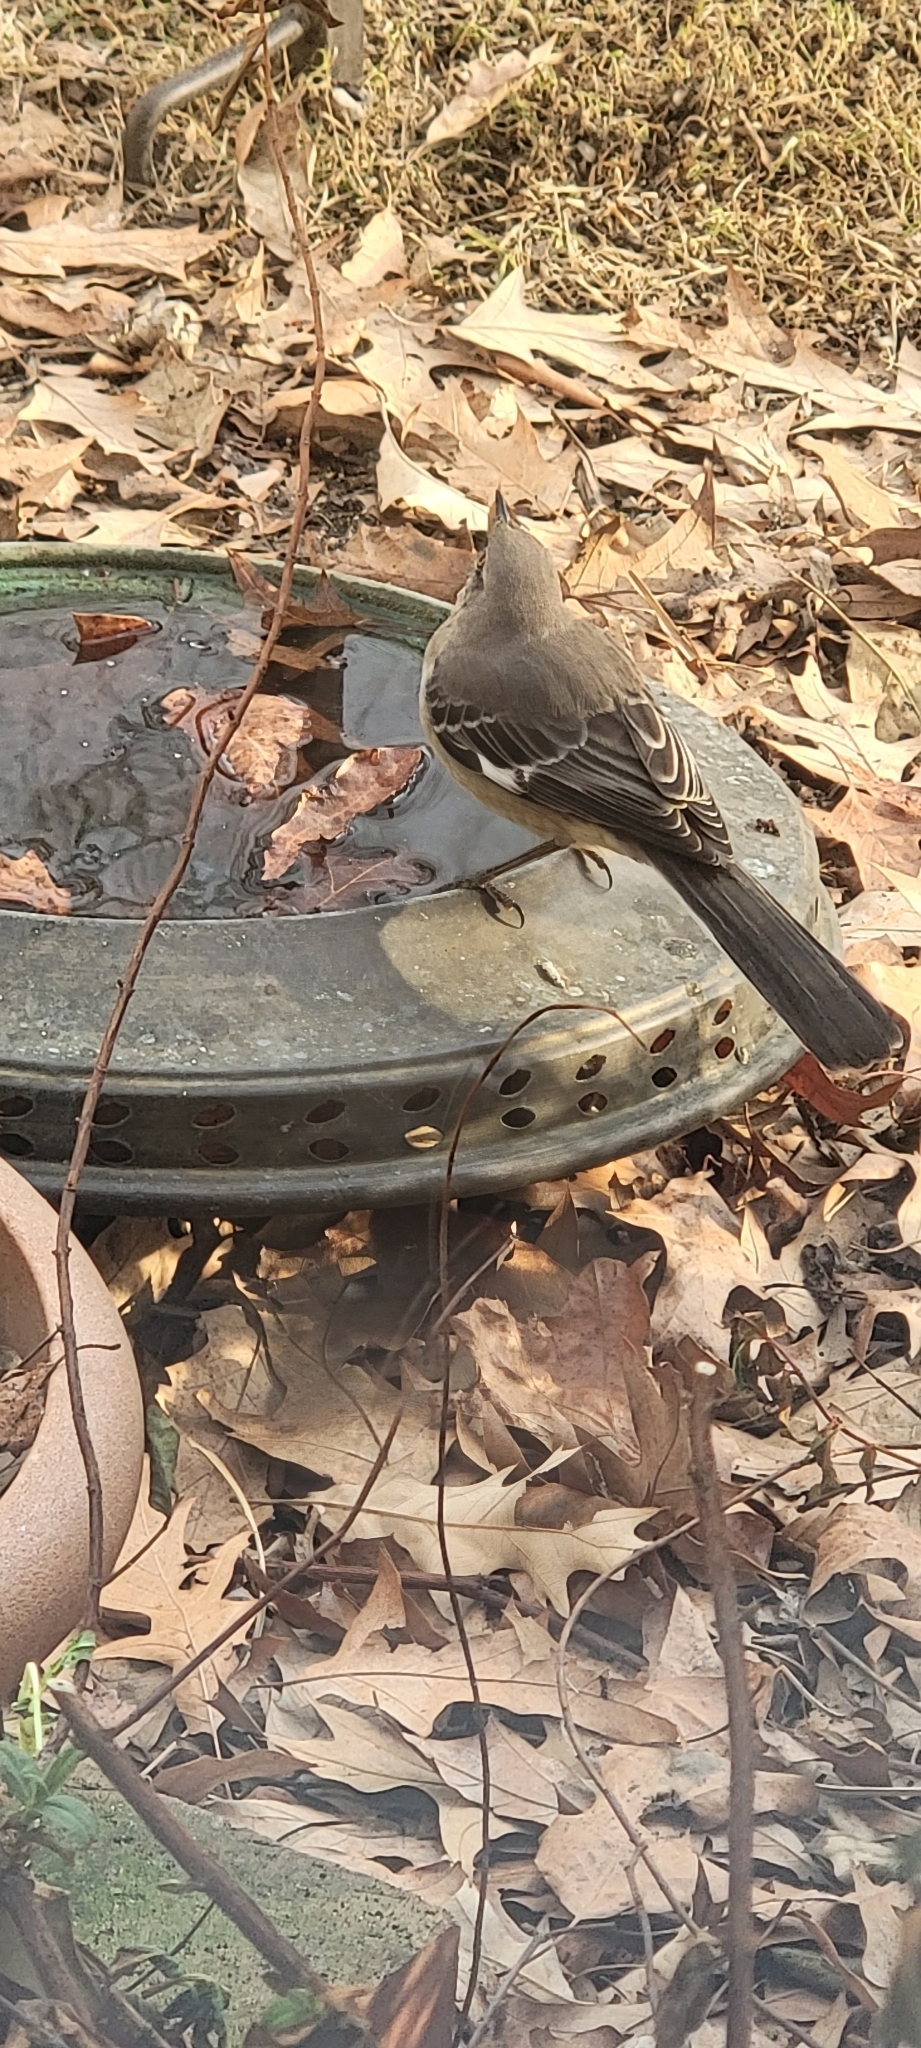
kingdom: Animalia
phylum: Chordata
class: Aves
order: Passeriformes
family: Mimidae
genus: Mimus
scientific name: Mimus polyglottos
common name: Northern mockingbird
